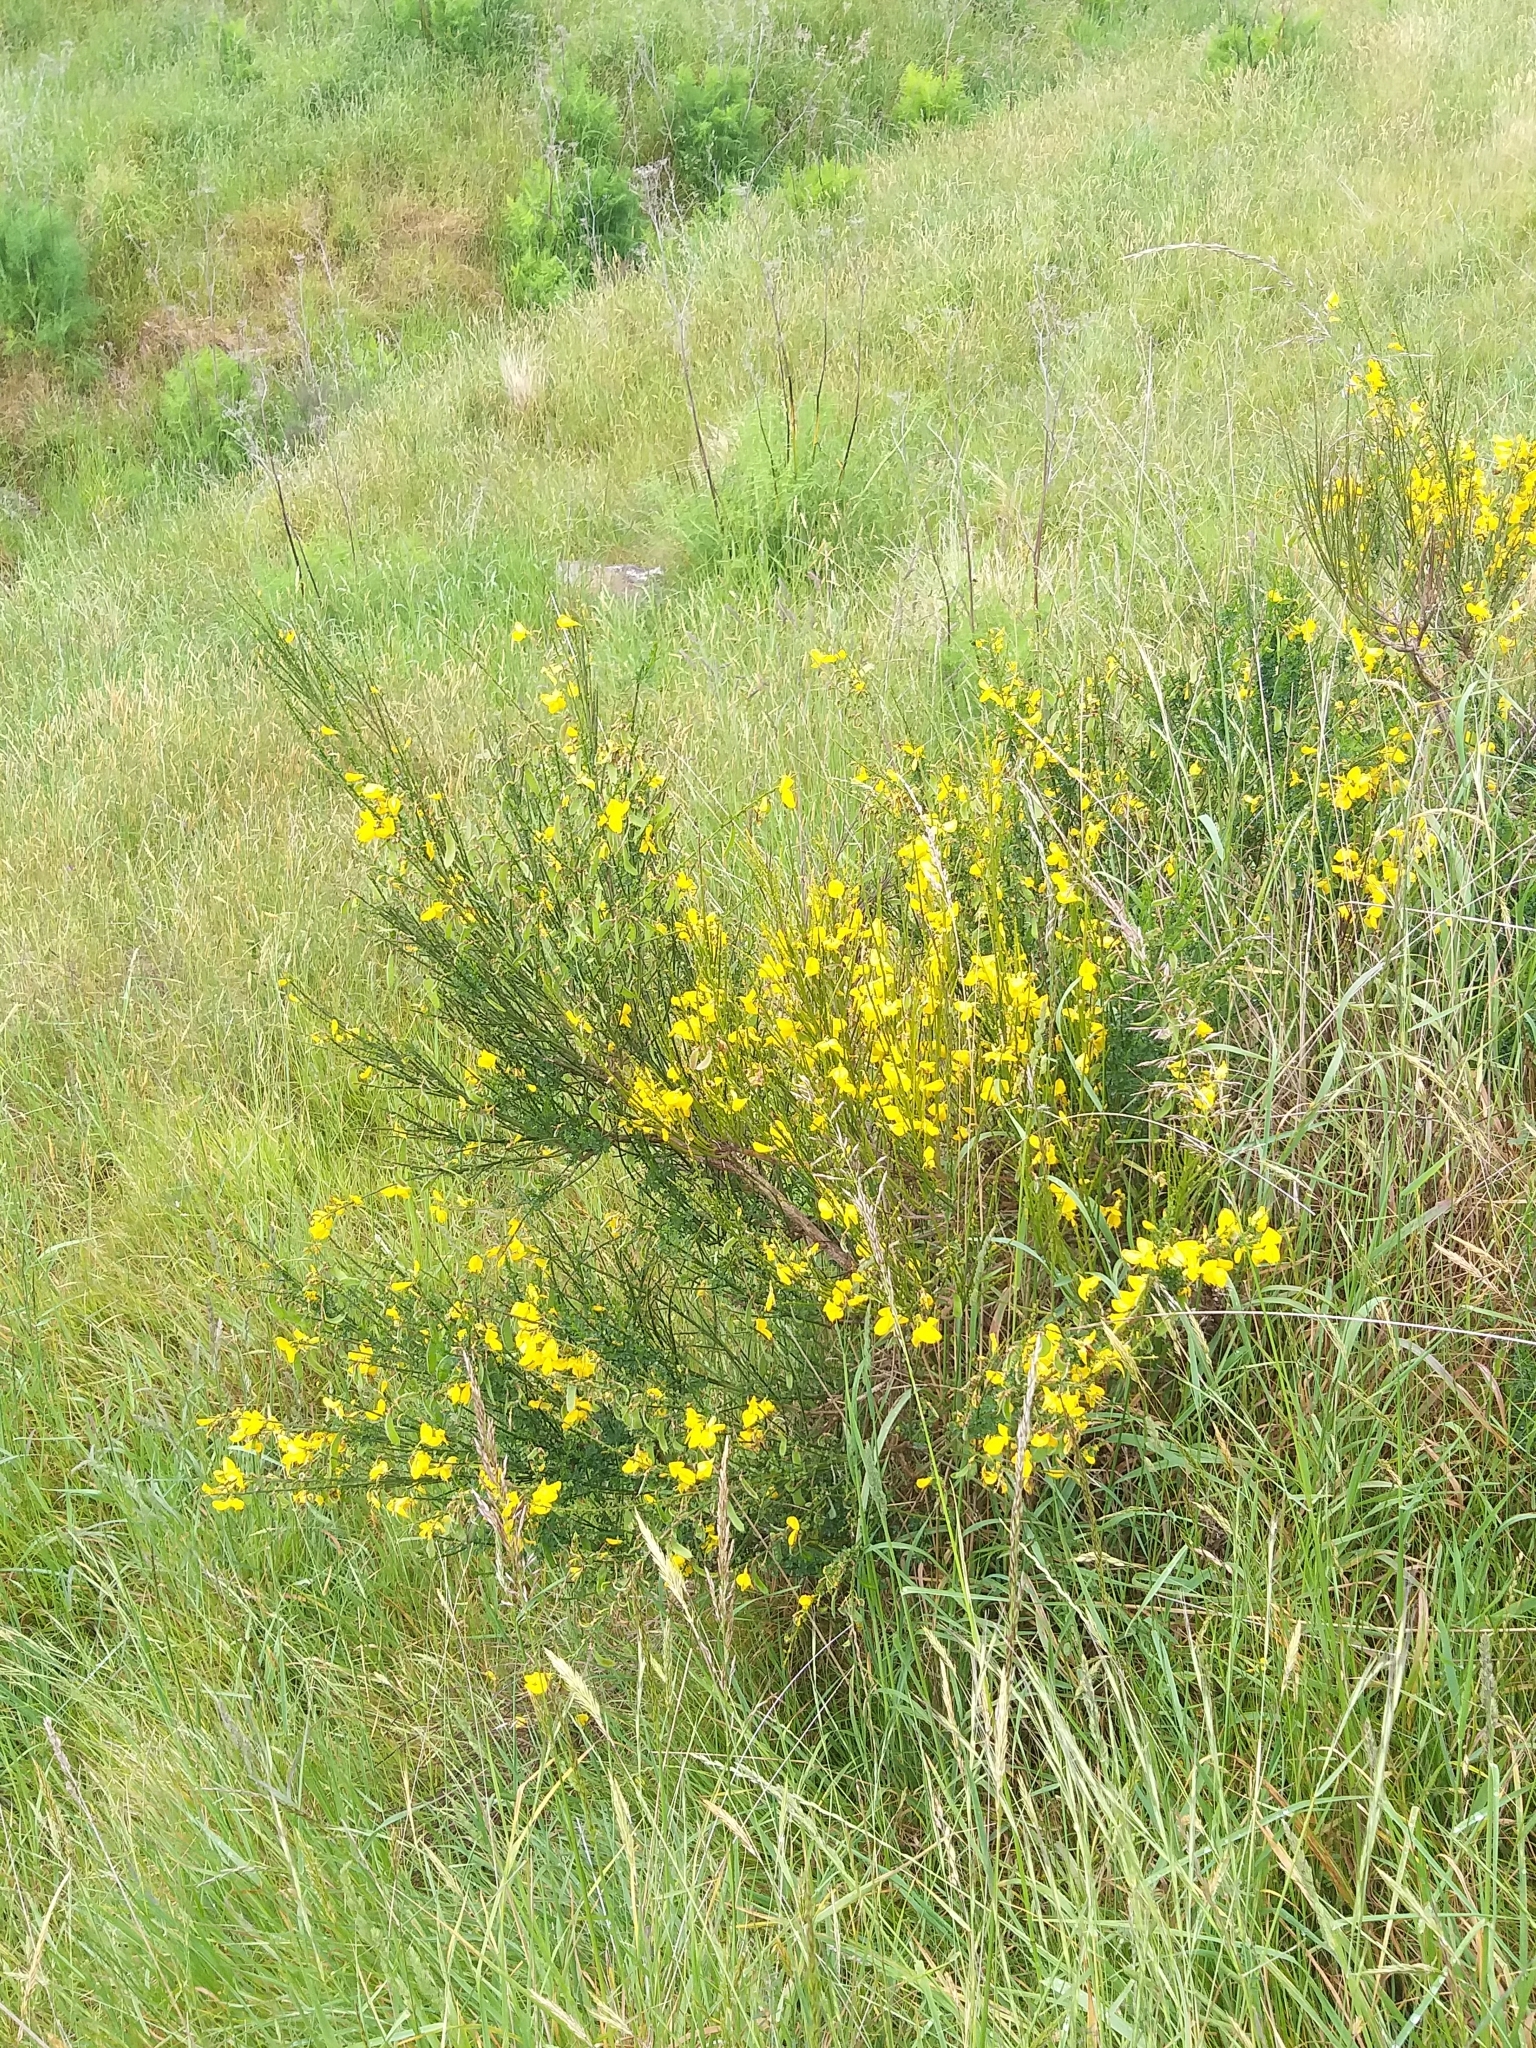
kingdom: Plantae
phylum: Tracheophyta
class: Magnoliopsida
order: Fabales
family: Fabaceae
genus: Cytisus
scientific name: Cytisus scoparius
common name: Scotch broom
